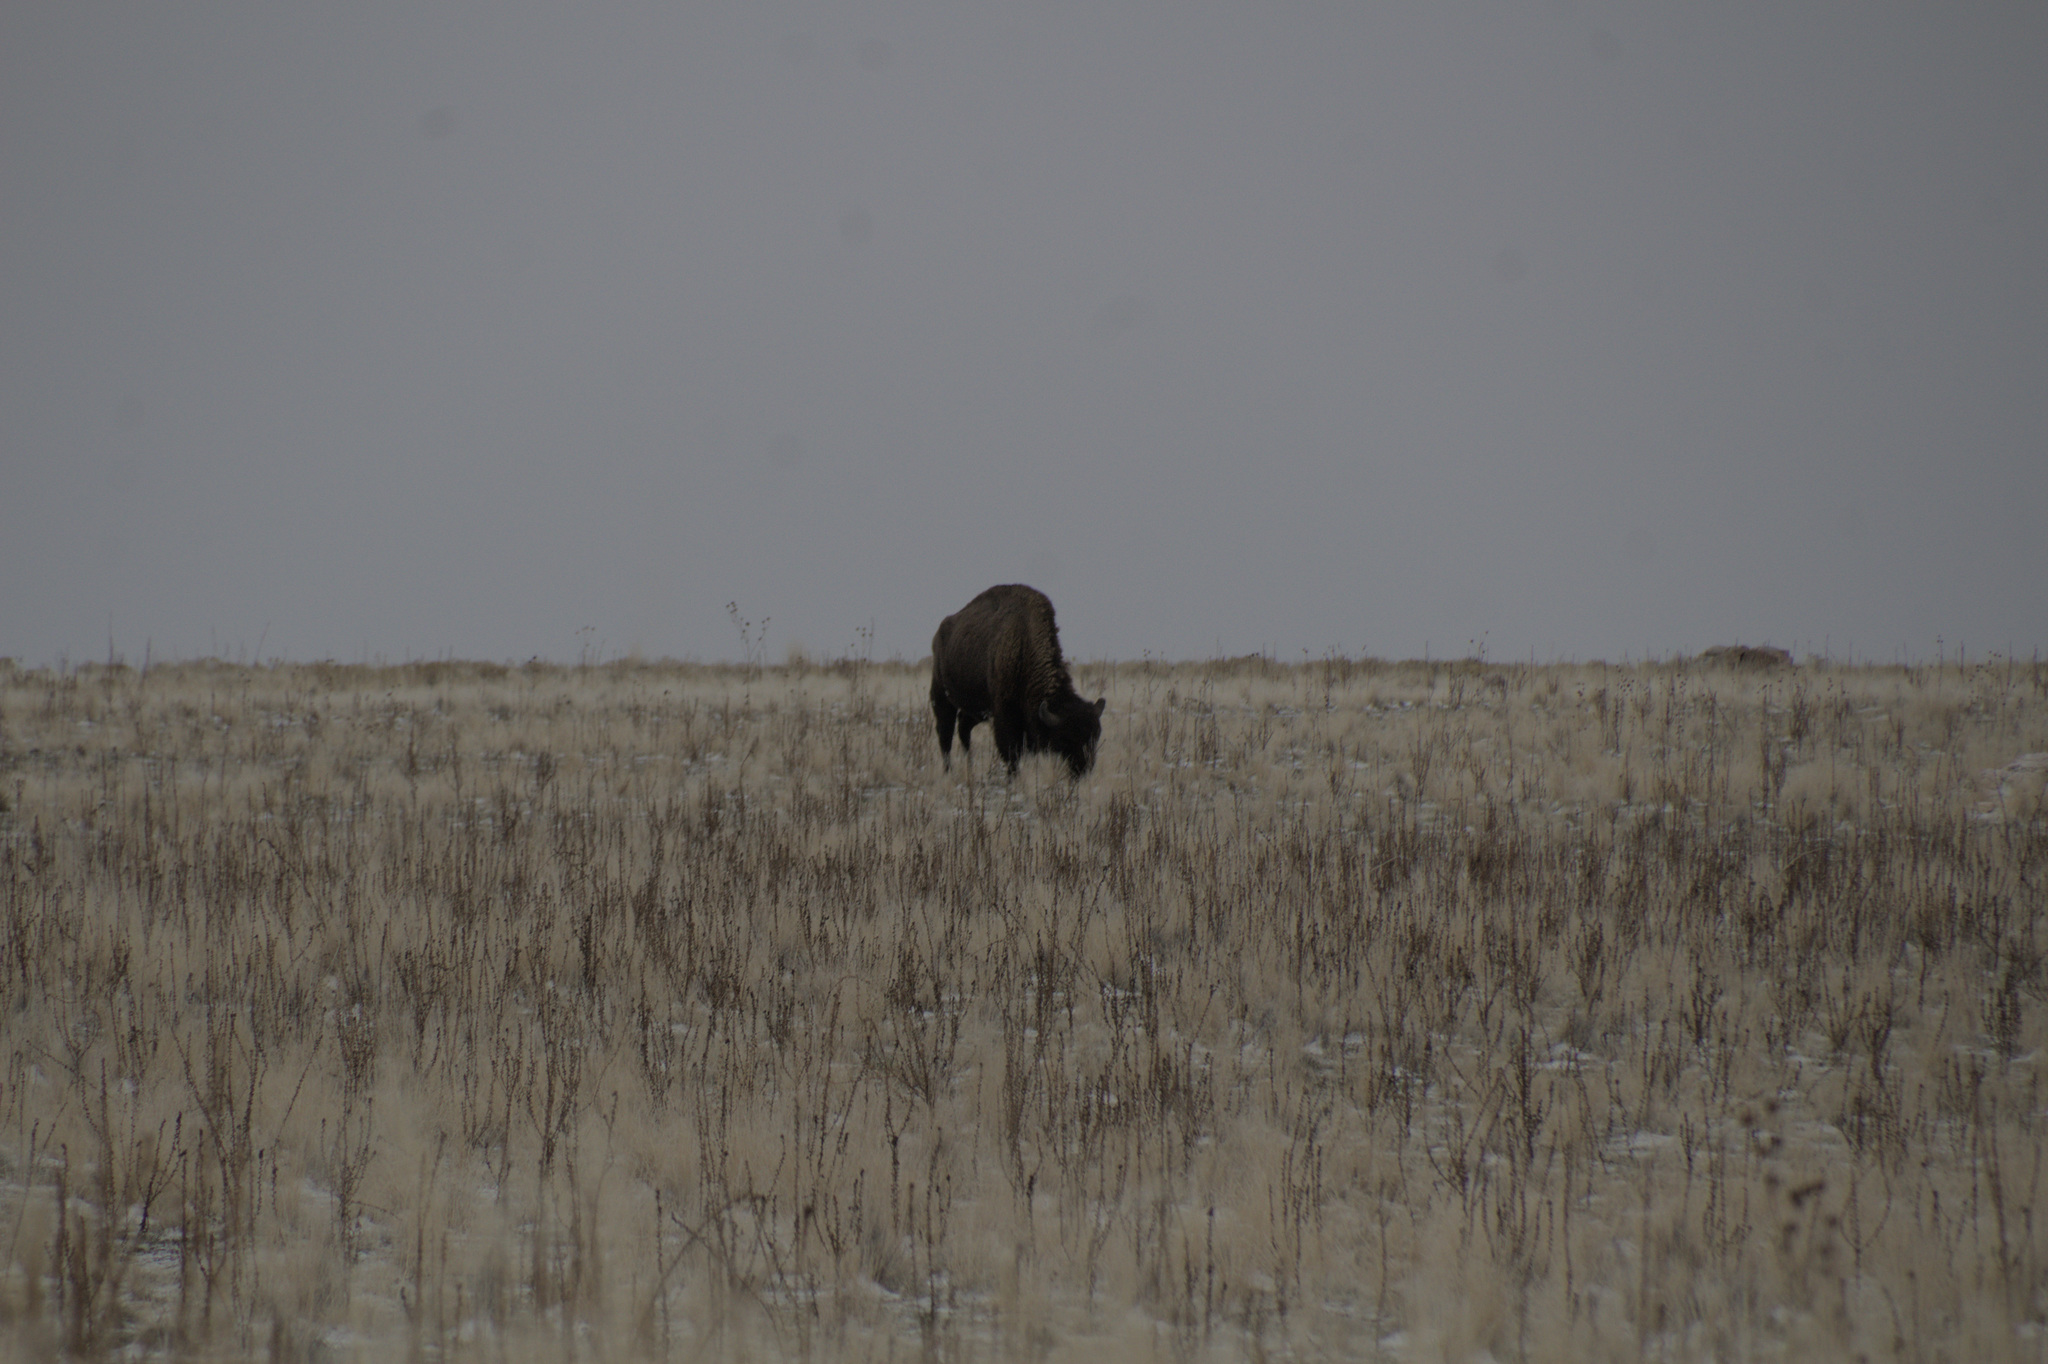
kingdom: Animalia
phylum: Chordata
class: Mammalia
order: Artiodactyla
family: Bovidae
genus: Bison
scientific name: Bison bison
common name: American bison
